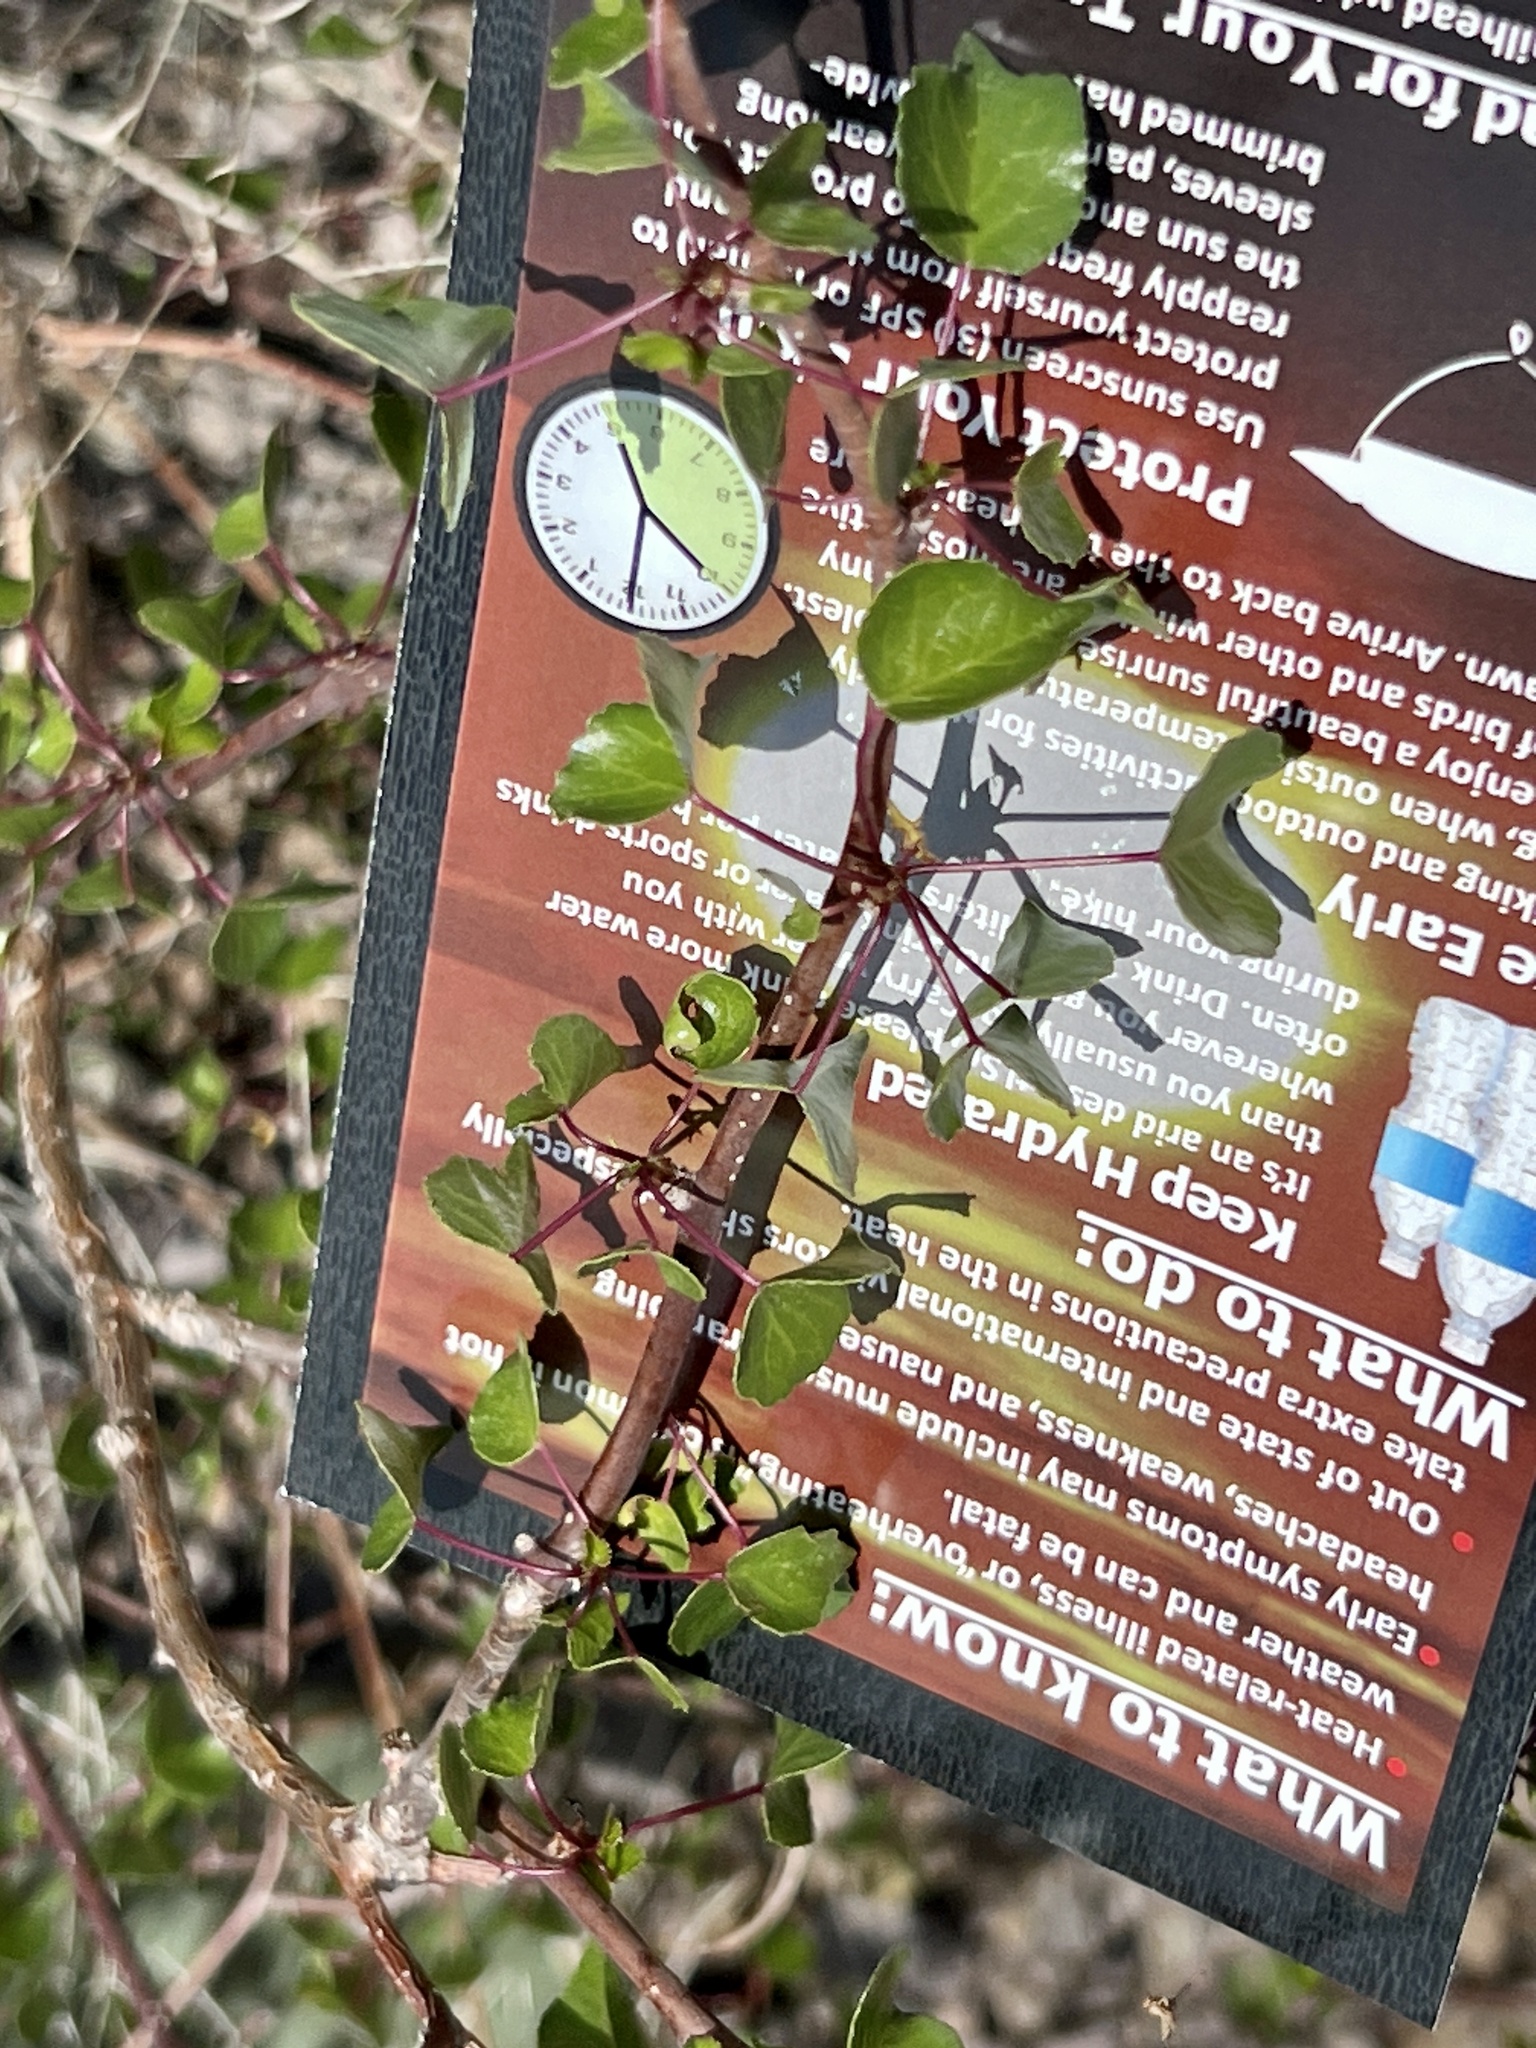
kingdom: Plantae
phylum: Tracheophyta
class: Magnoliopsida
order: Malpighiales
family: Euphorbiaceae
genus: Jatropha
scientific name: Jatropha cardiophylla
